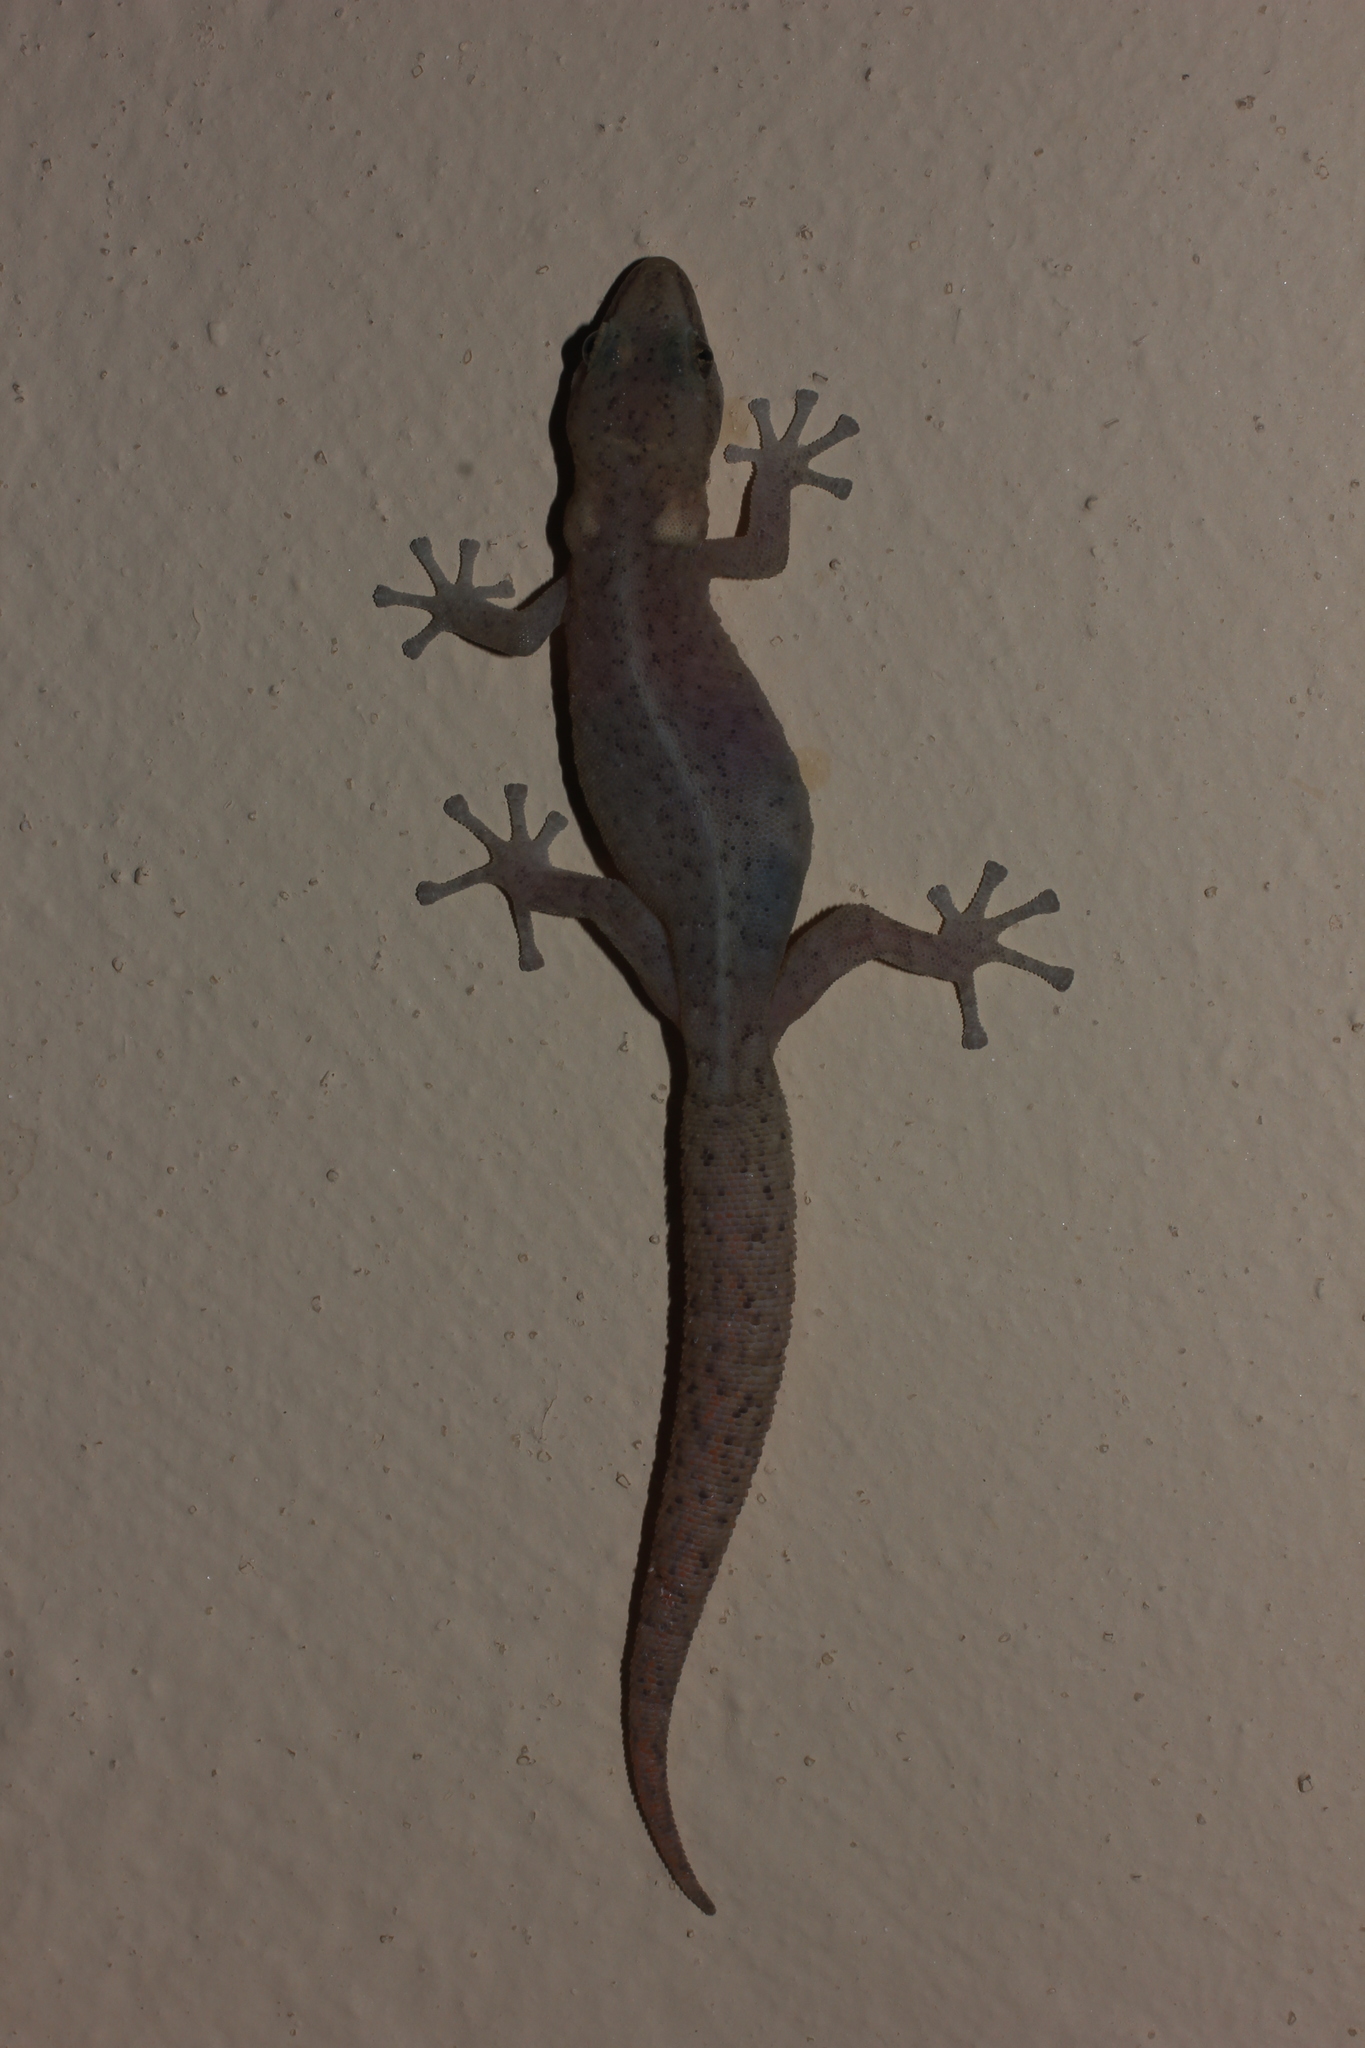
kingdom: Animalia
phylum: Chordata
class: Squamata
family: Gekkonidae
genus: Afrogecko
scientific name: Afrogecko porphyreus
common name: Marbled leaf-toed gecko
